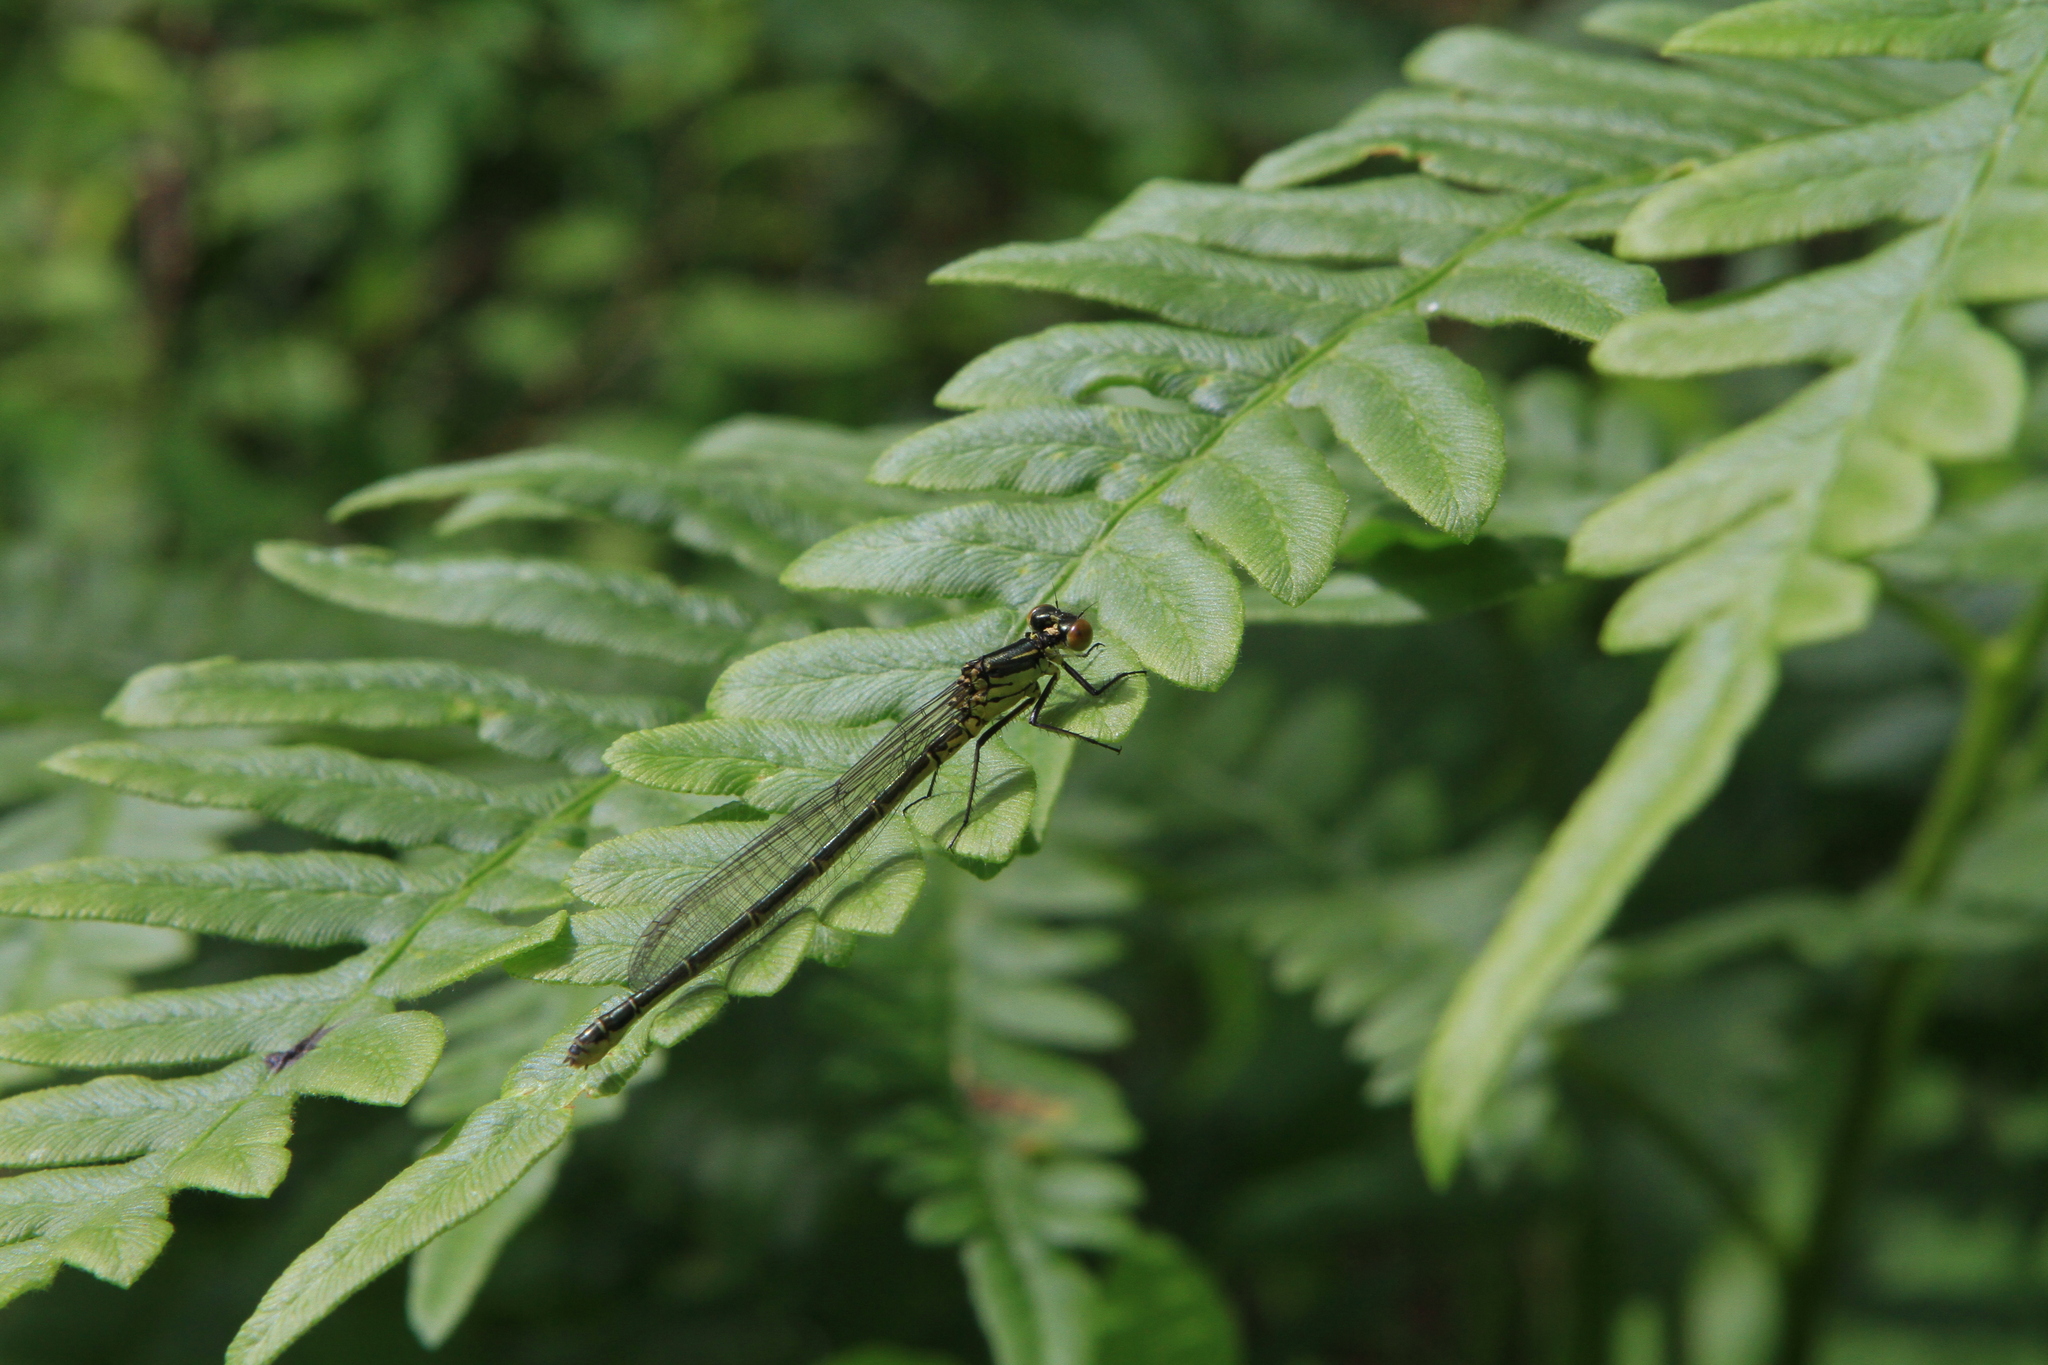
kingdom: Plantae
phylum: Tracheophyta
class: Polypodiopsida
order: Polypodiales
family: Dennstaedtiaceae
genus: Pteridium
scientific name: Pteridium aquilinum
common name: Bracken
